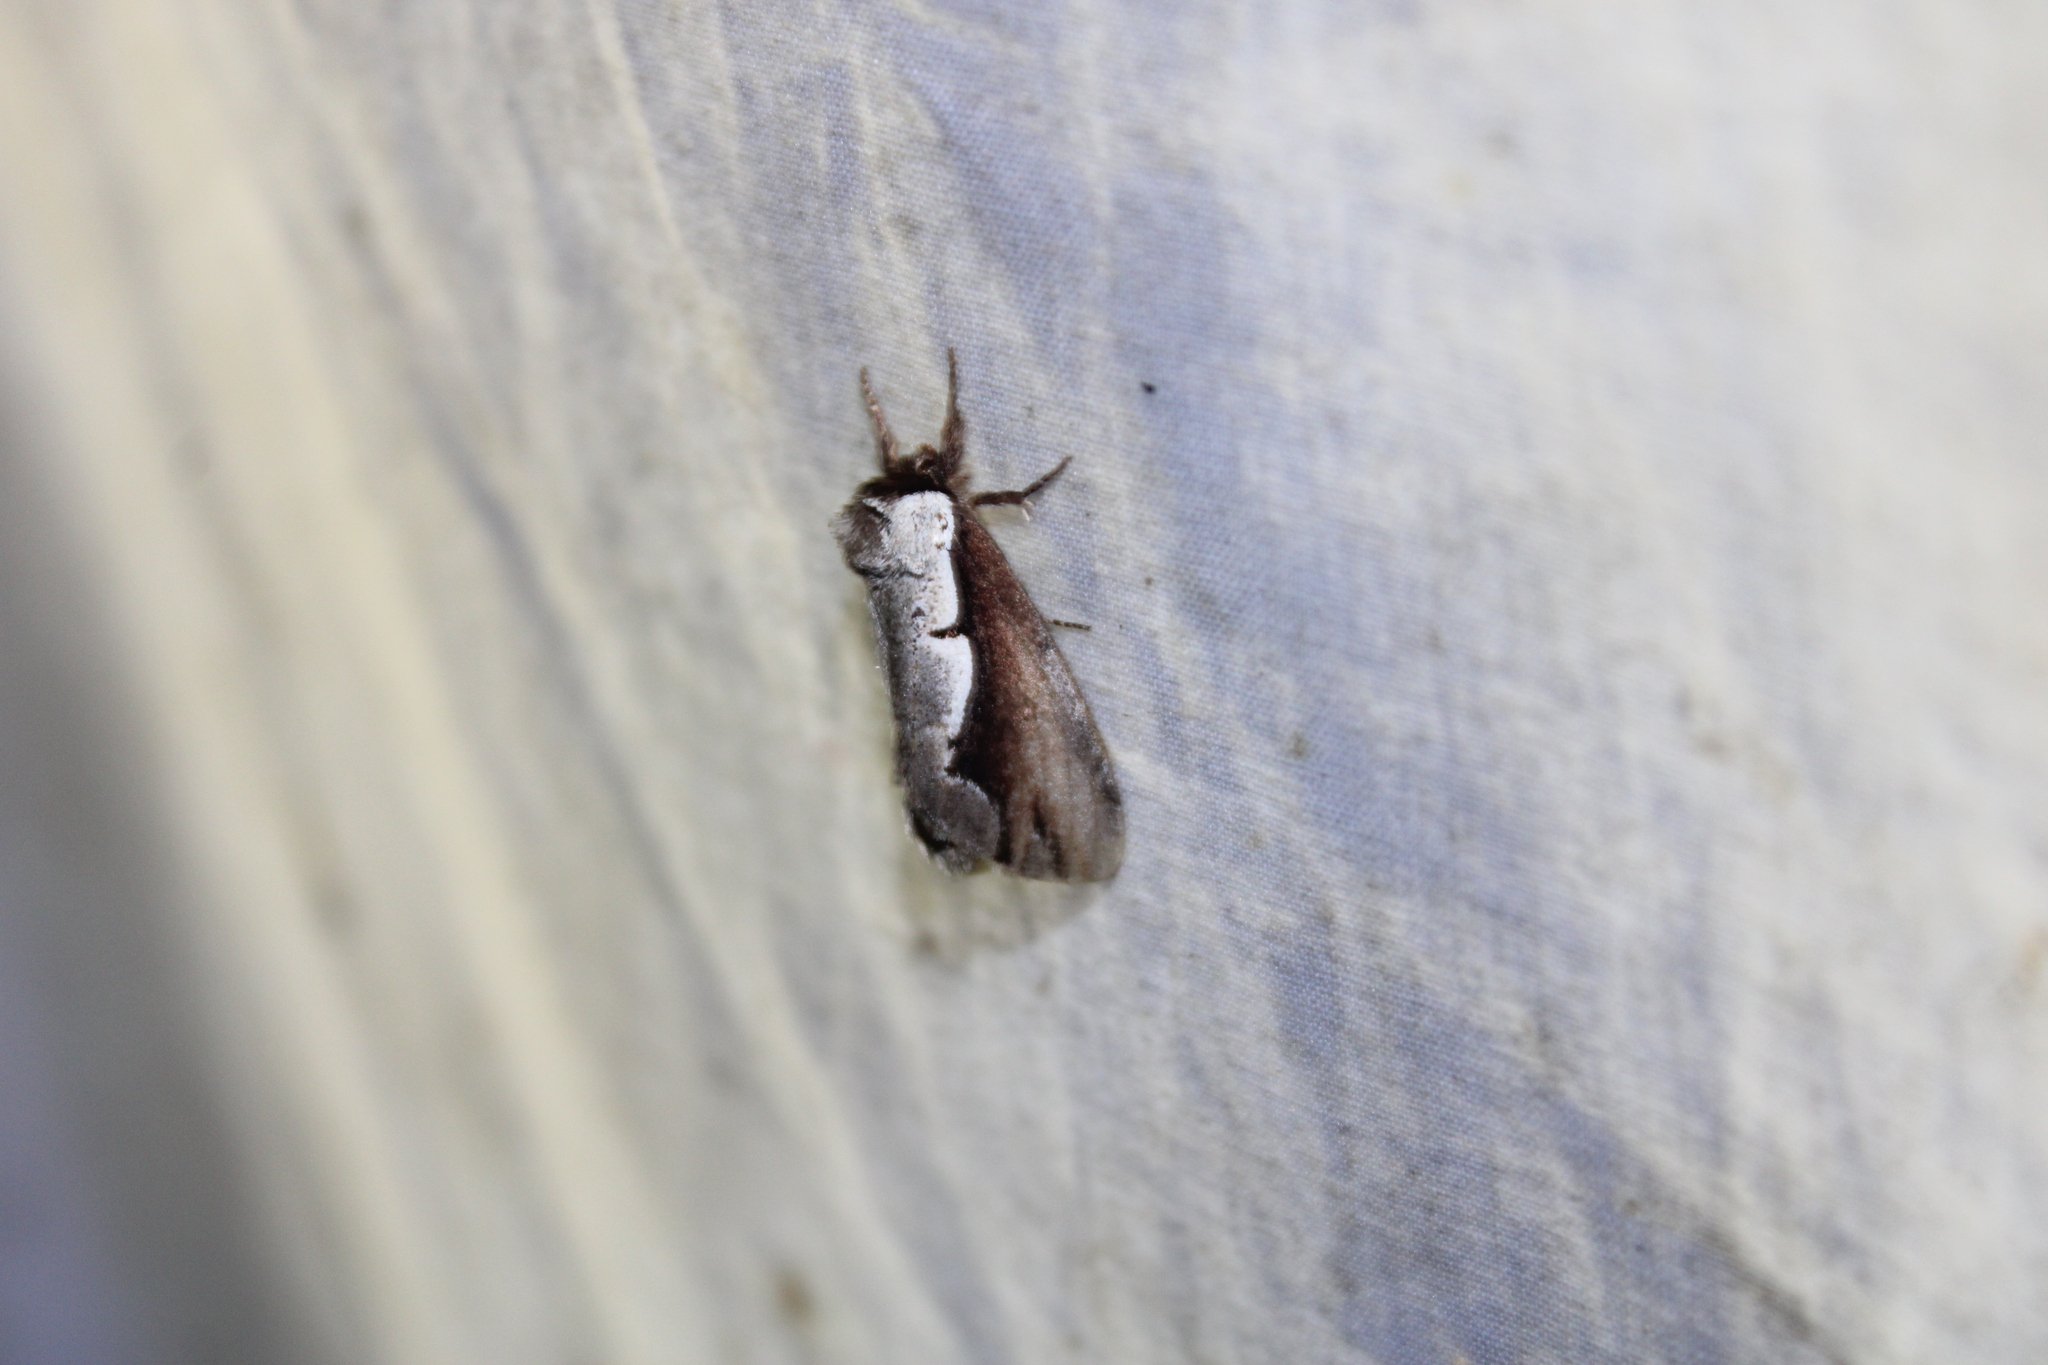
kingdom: Animalia
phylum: Arthropoda
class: Insecta
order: Lepidoptera
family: Notodontidae
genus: Nerice
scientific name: Nerice bidentata
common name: Double-toothed prominent
